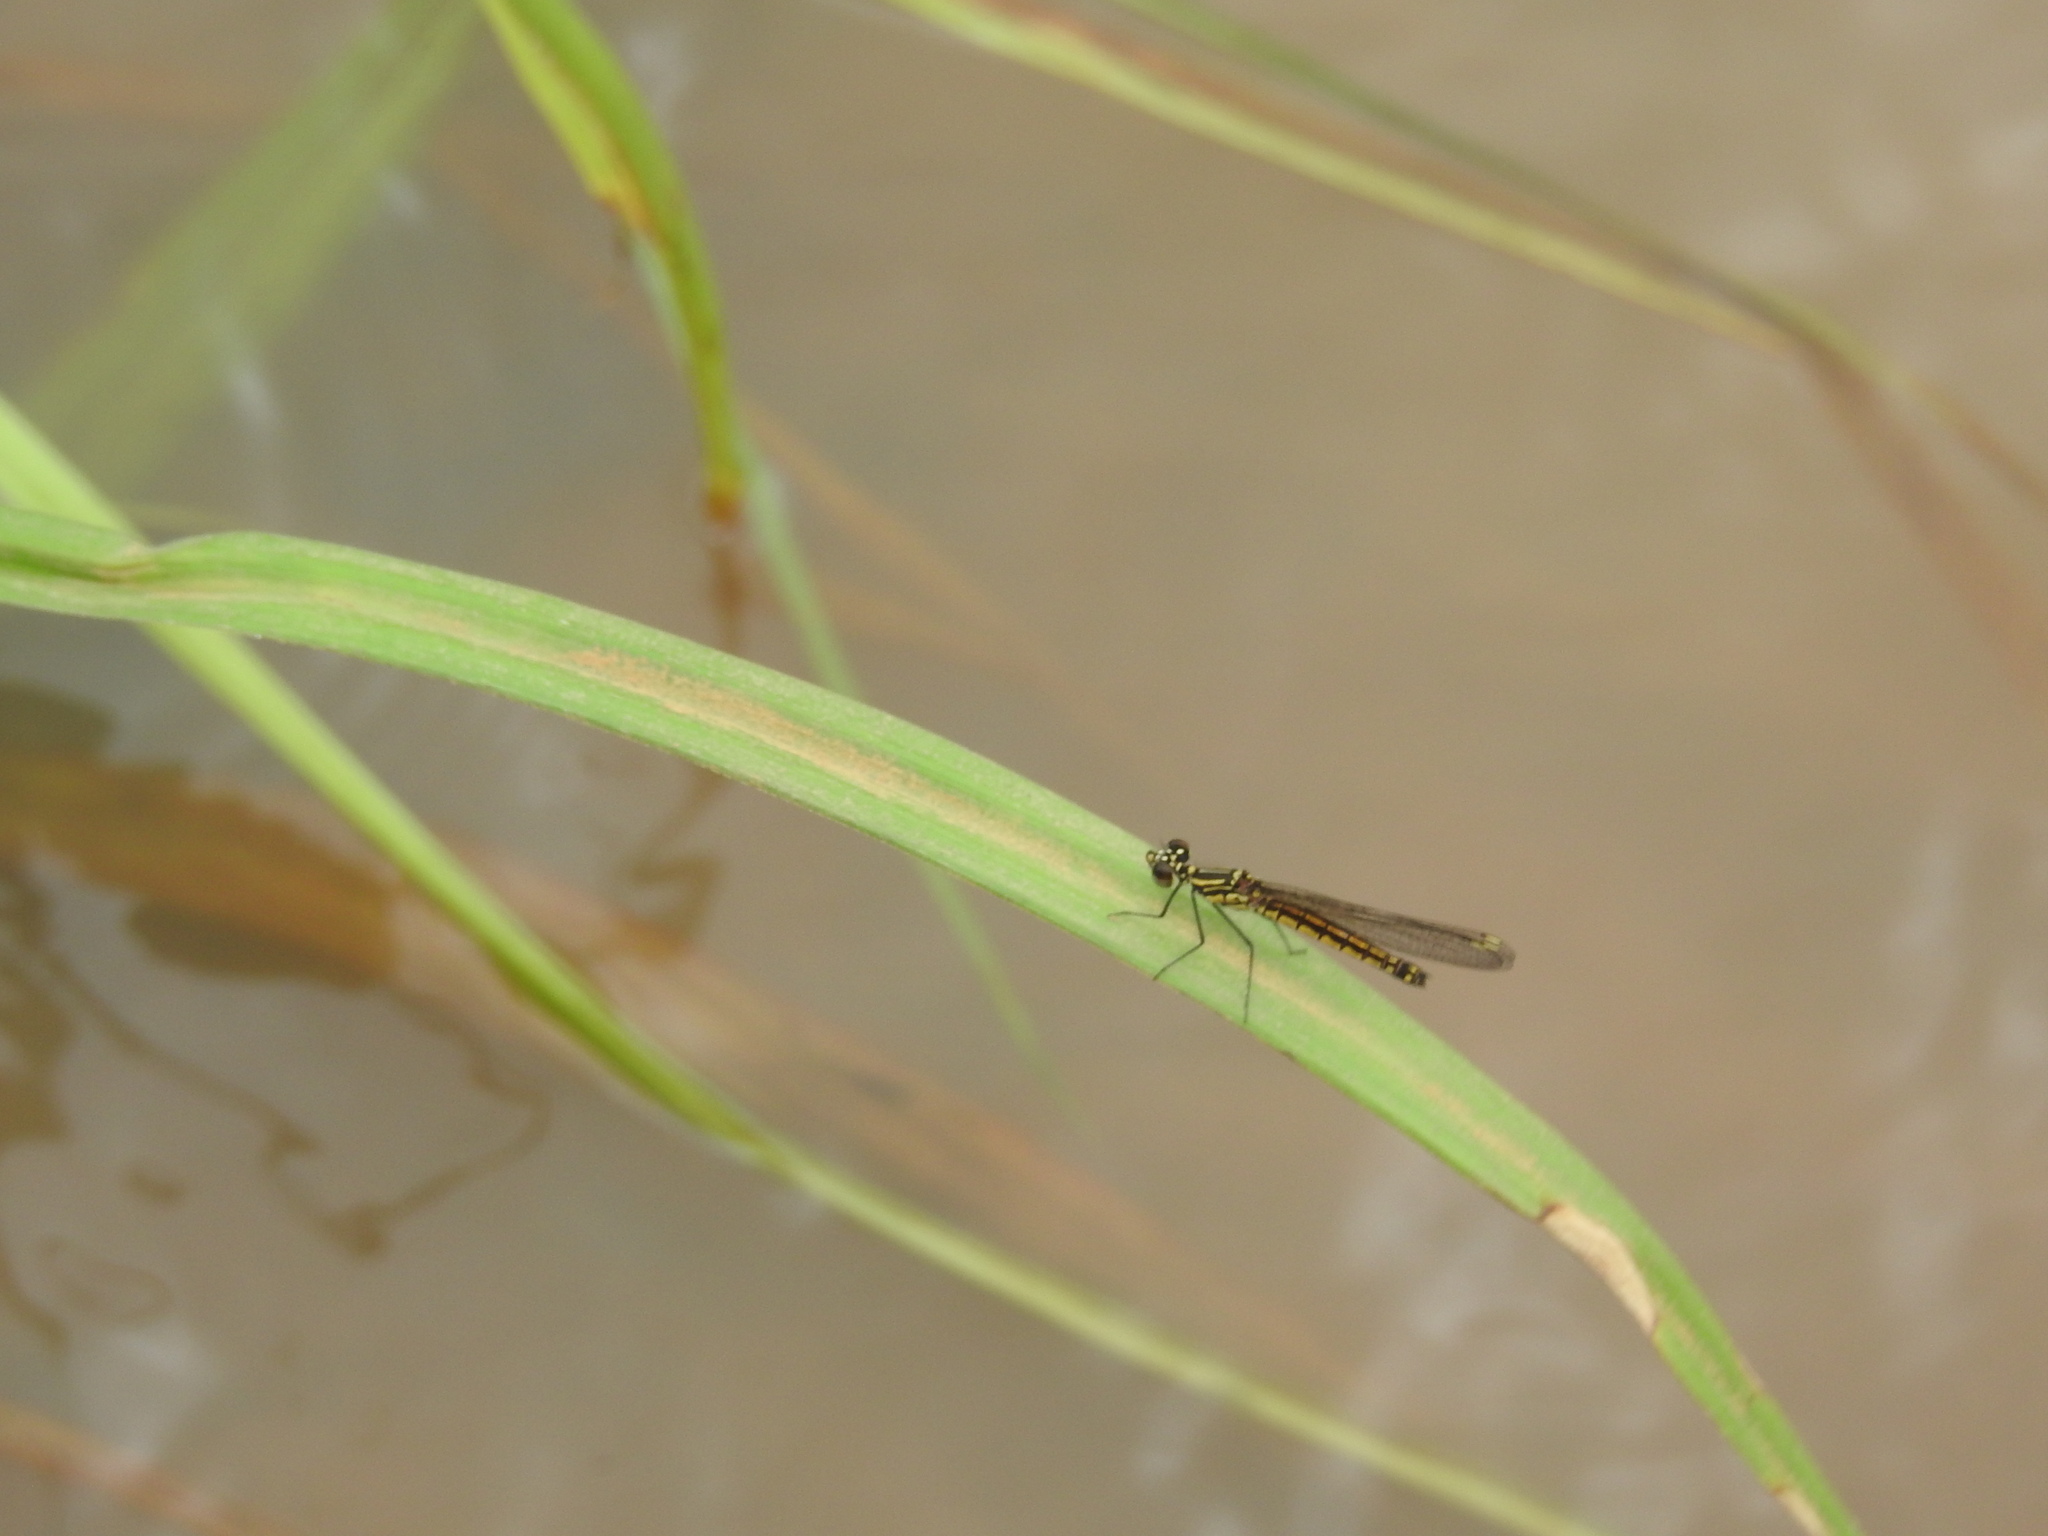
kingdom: Animalia
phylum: Arthropoda
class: Insecta
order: Odonata
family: Chlorocyphidae
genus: Libellago
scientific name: Libellago indica
